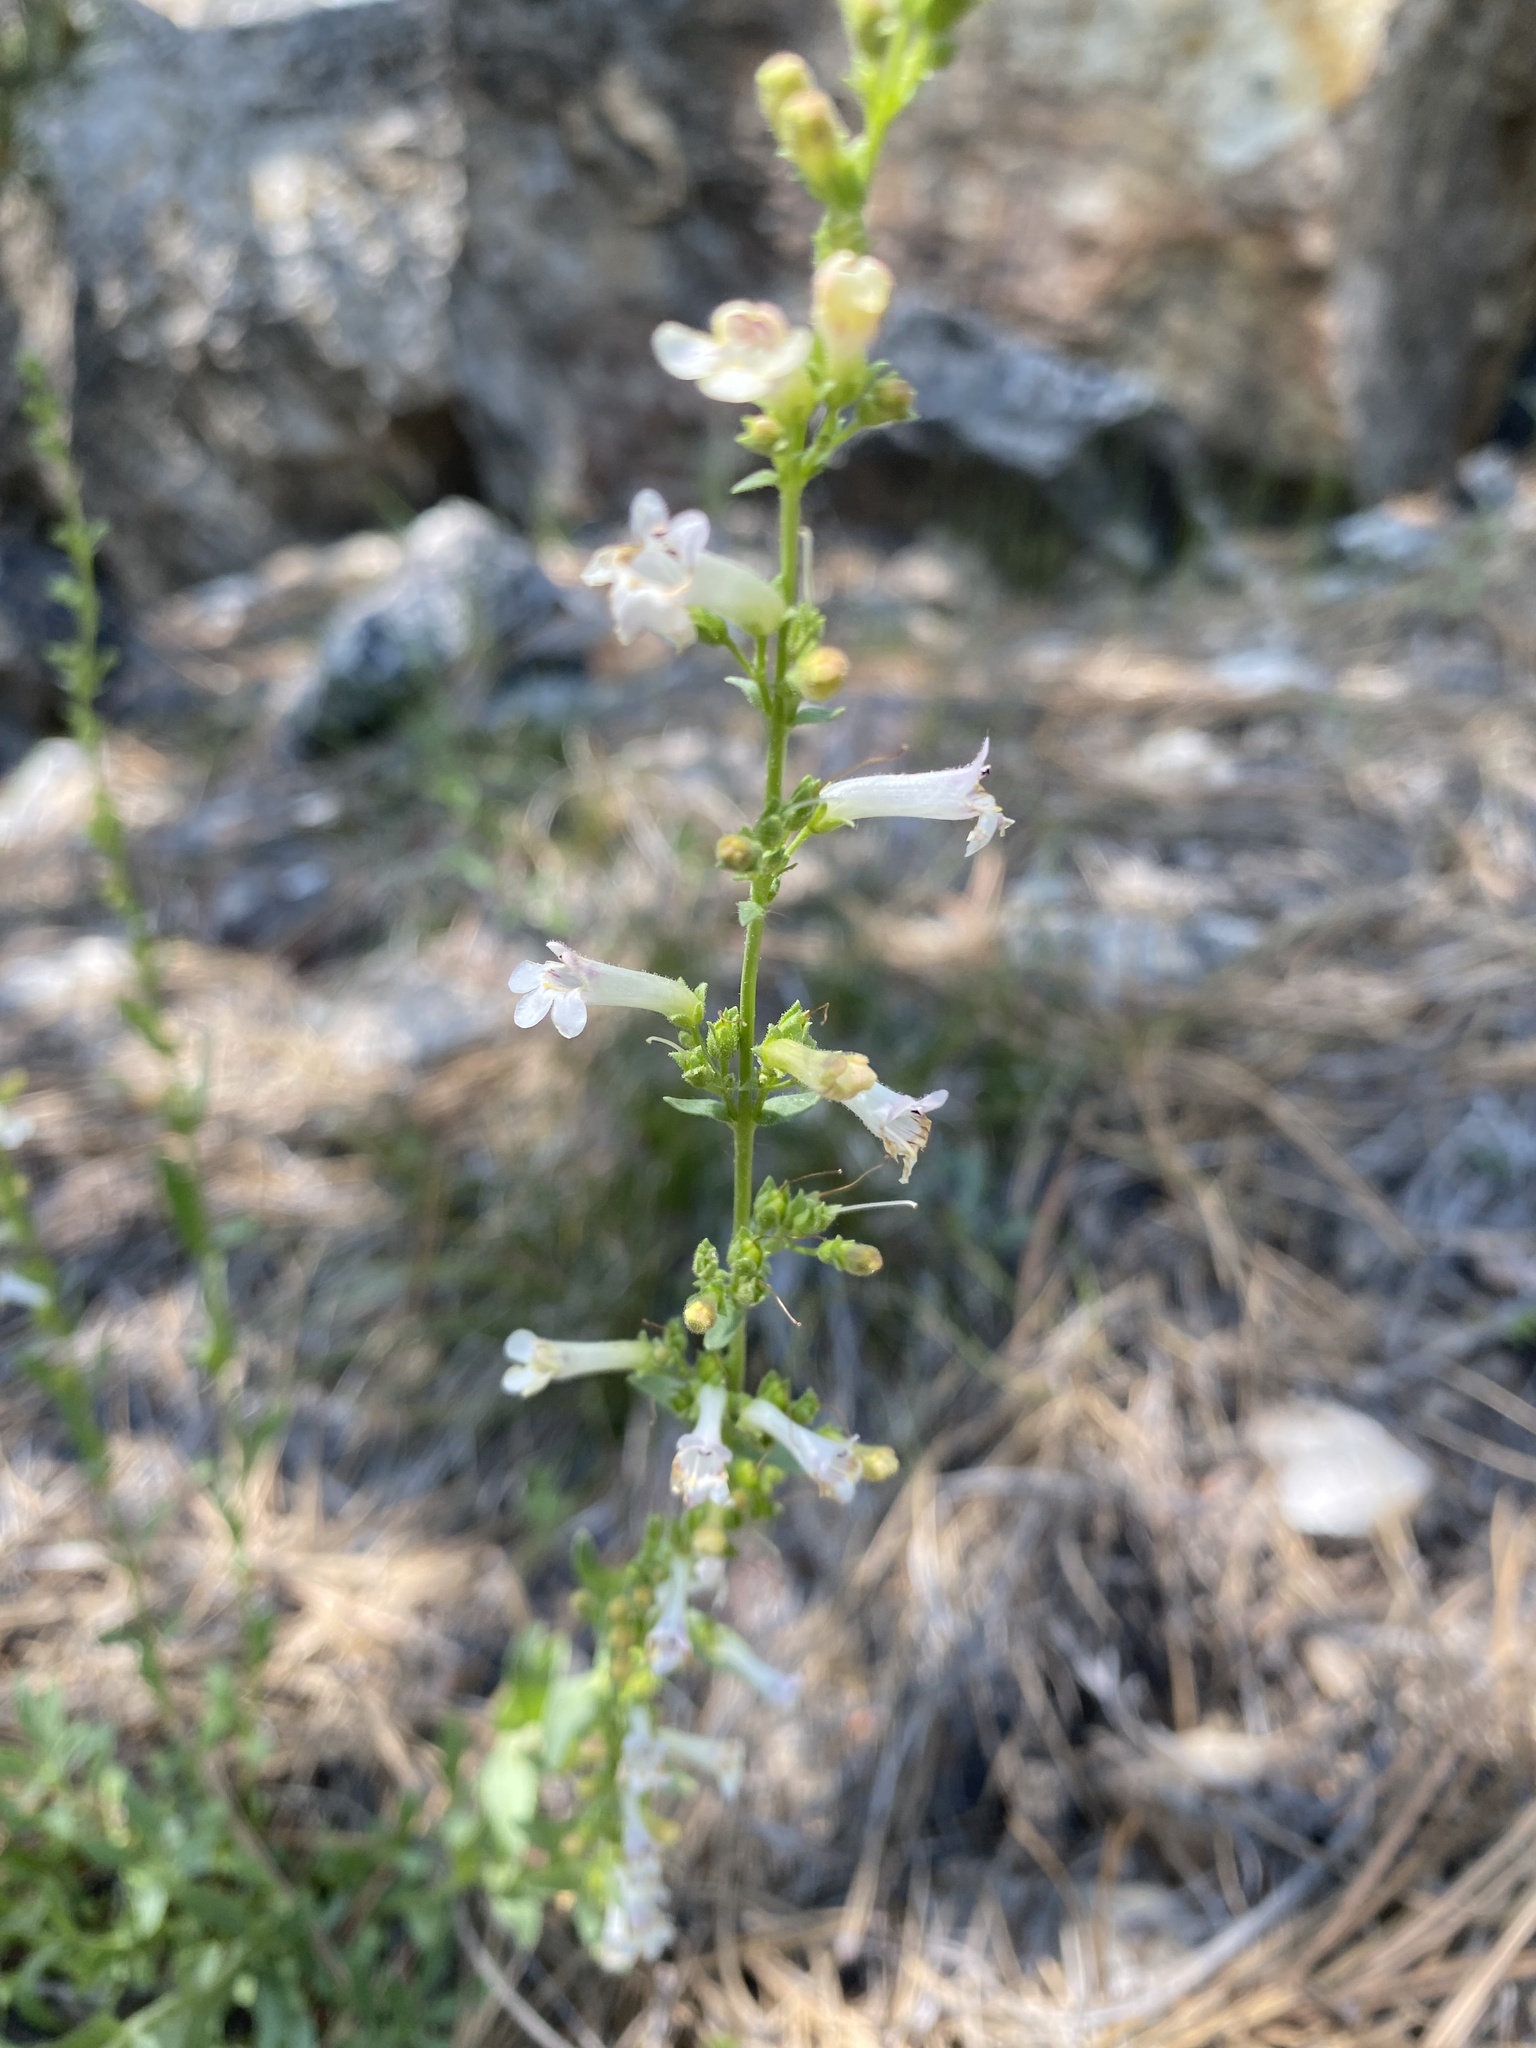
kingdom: Plantae
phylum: Tracheophyta
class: Magnoliopsida
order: Lamiales
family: Plantaginaceae
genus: Penstemon
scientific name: Penstemon deustus
